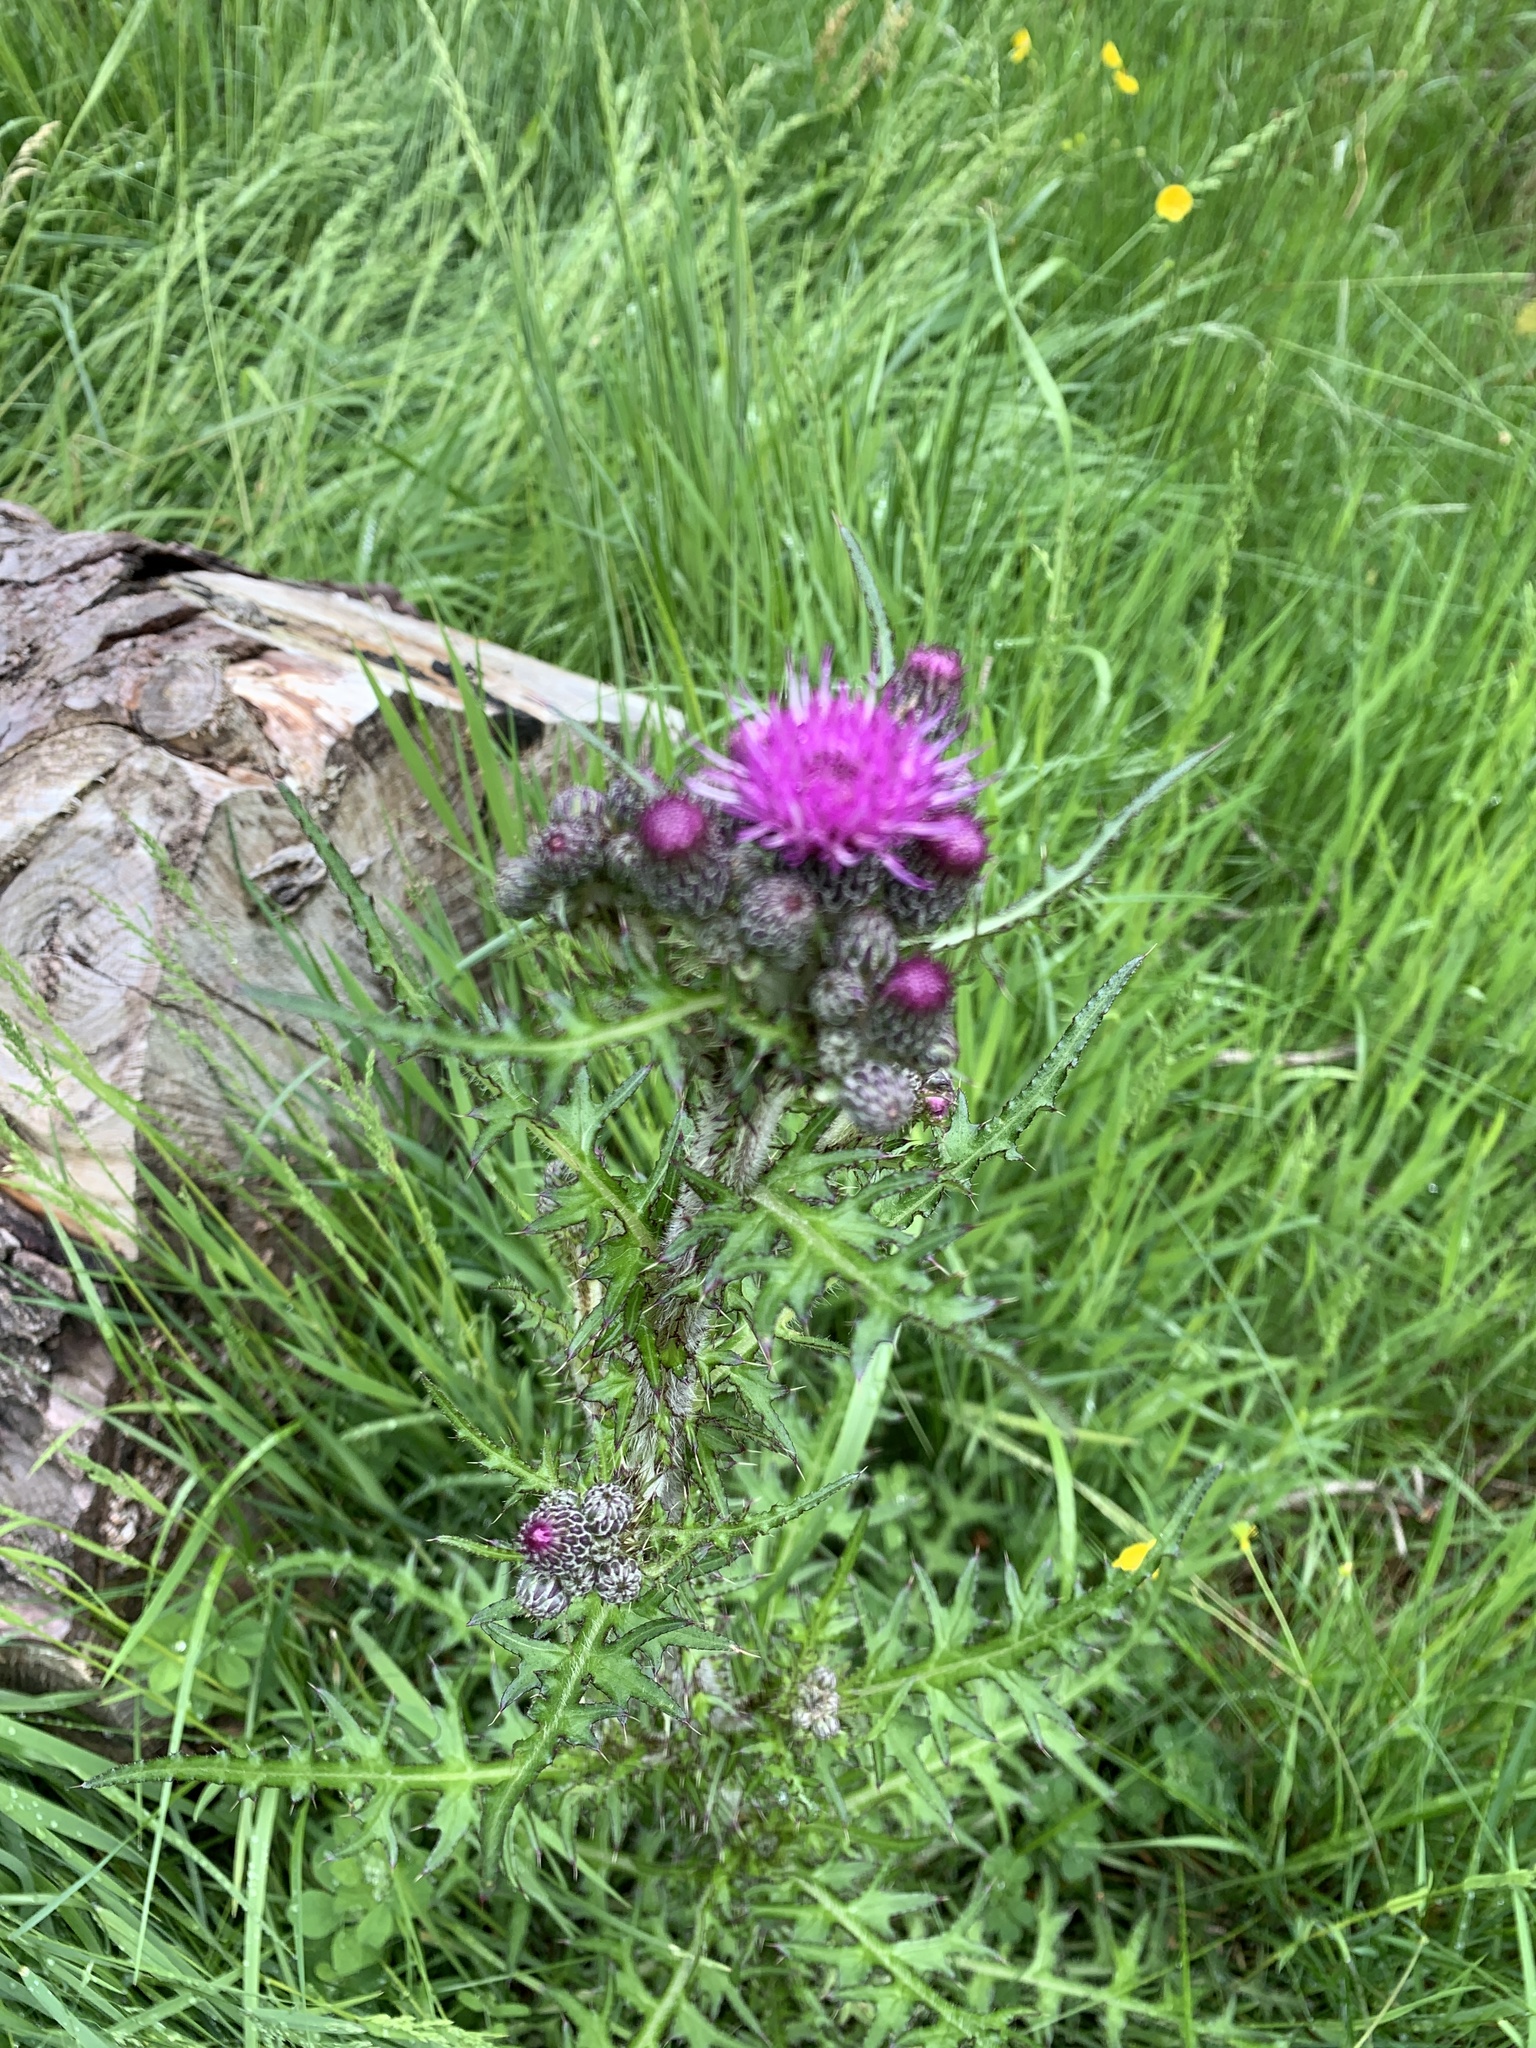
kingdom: Plantae
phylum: Tracheophyta
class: Magnoliopsida
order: Asterales
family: Asteraceae
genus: Cirsium
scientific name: Cirsium palustre
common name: Marsh thistle
